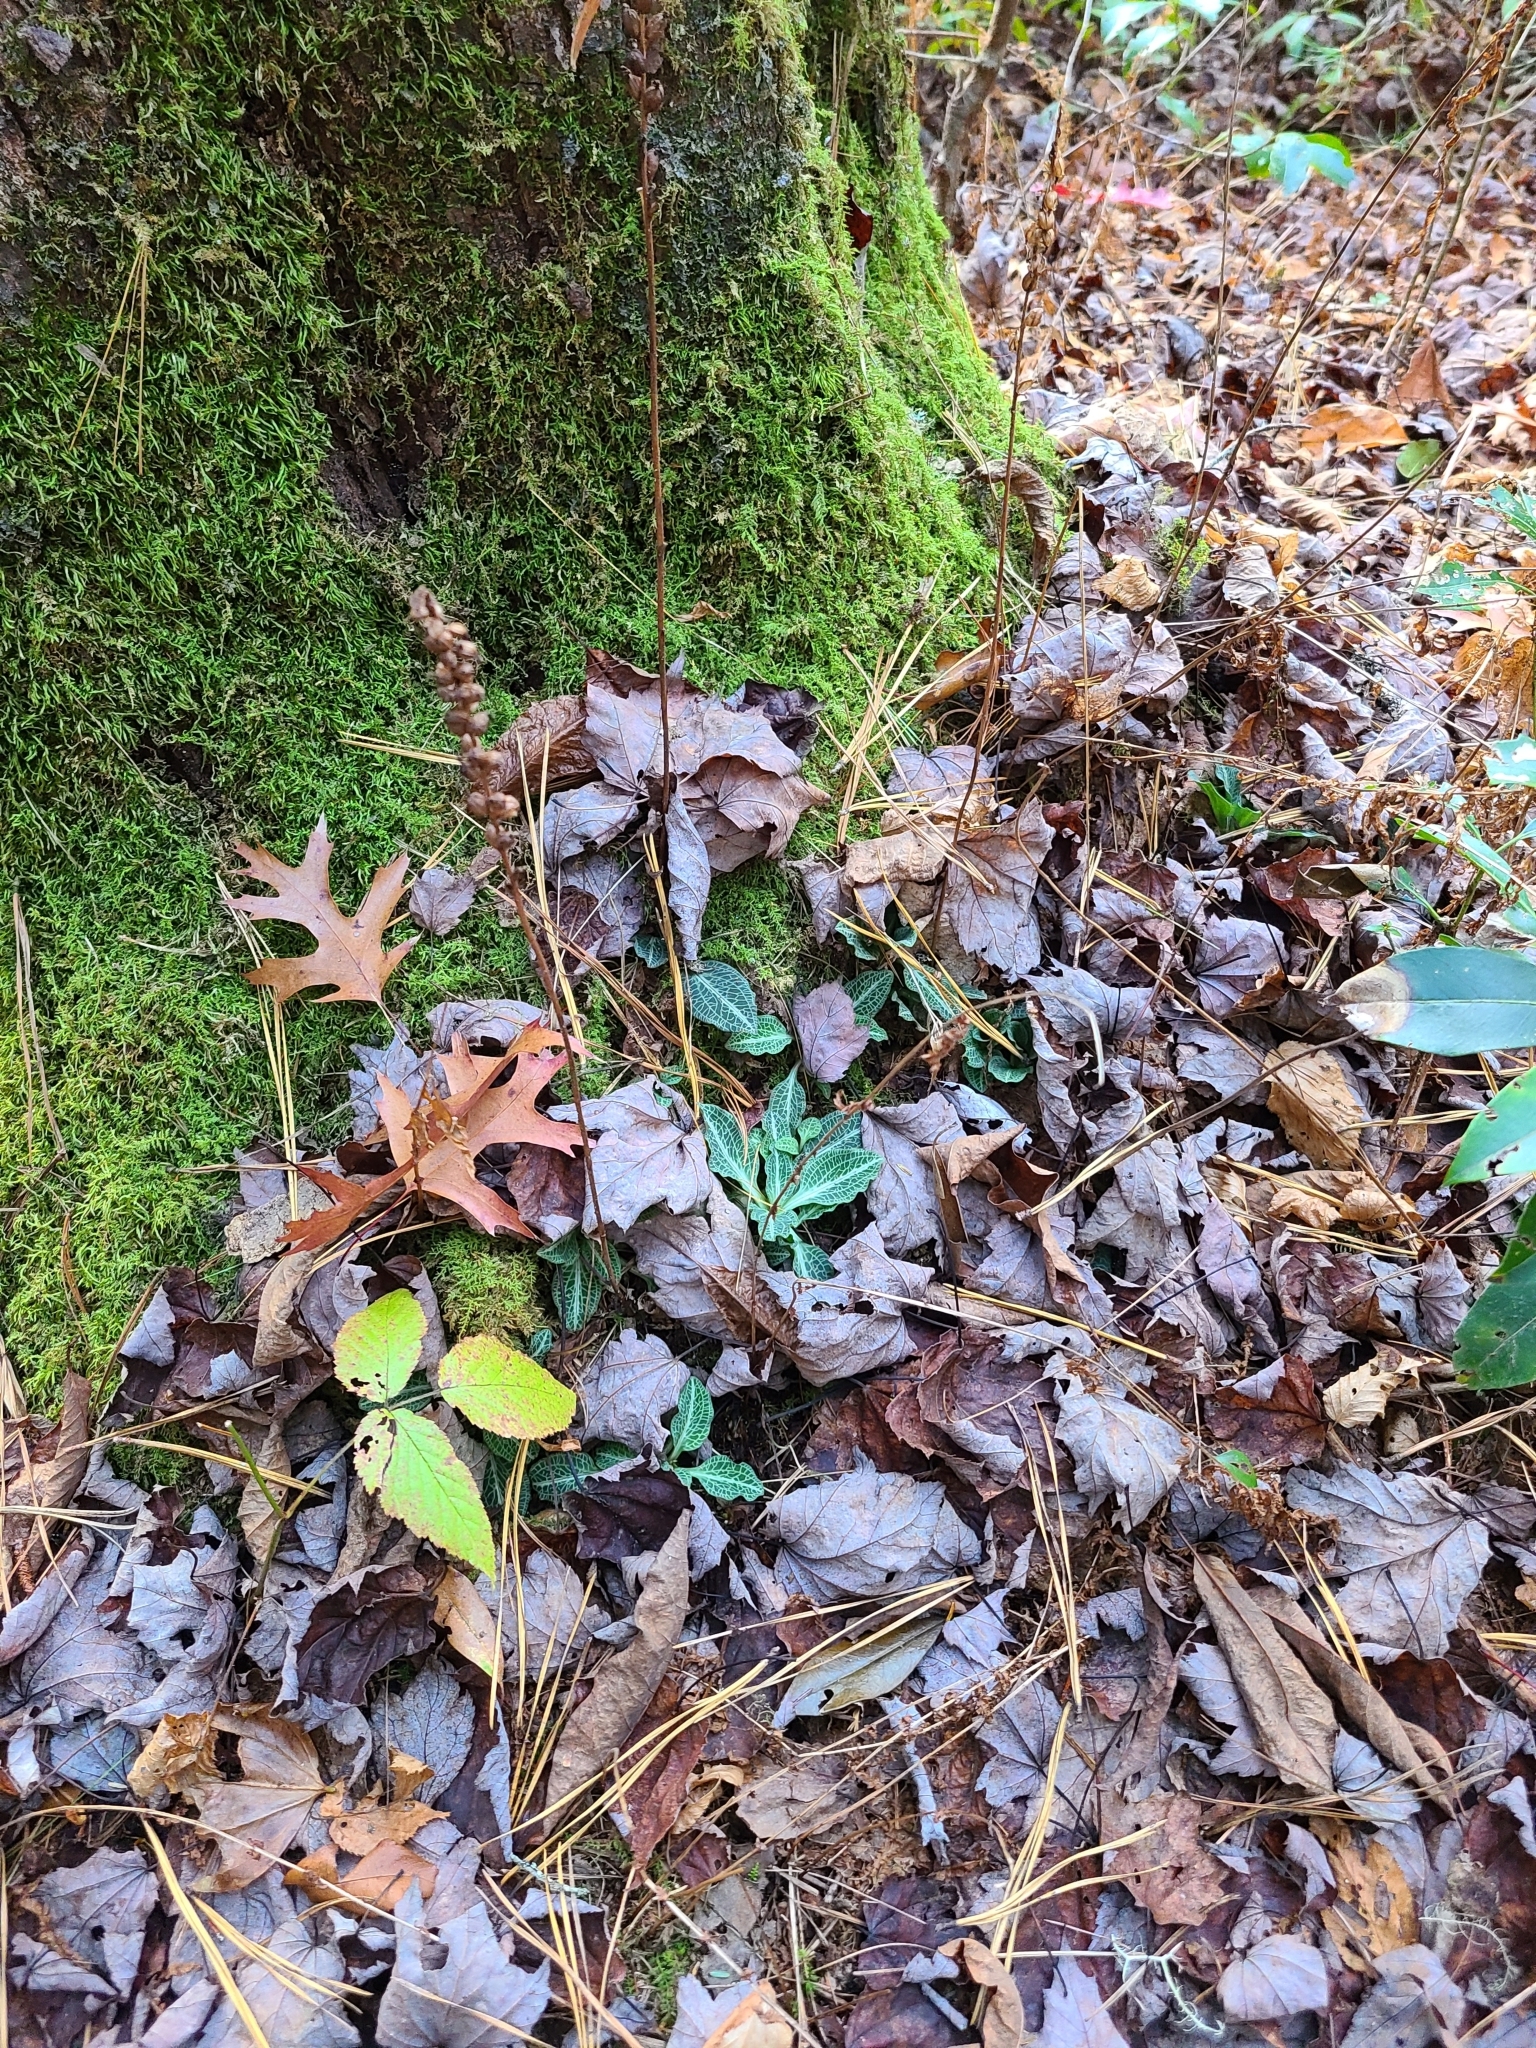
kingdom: Plantae
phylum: Tracheophyta
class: Liliopsida
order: Asparagales
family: Orchidaceae
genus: Goodyera
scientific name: Goodyera pubescens
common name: Downy rattlesnake-plantain
